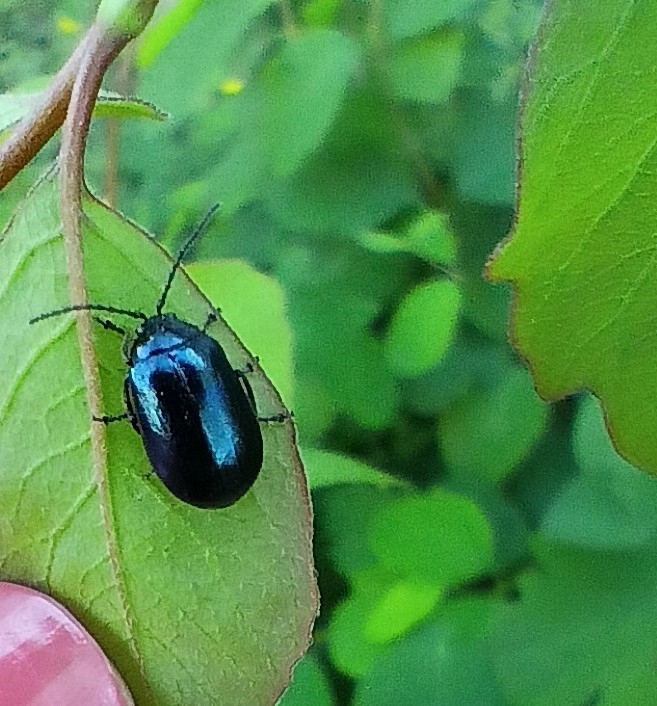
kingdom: Animalia
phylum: Arthropoda
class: Insecta
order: Coleoptera
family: Chrysomelidae
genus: Agelastica
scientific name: Agelastica alni
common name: Alder leaf beetle
